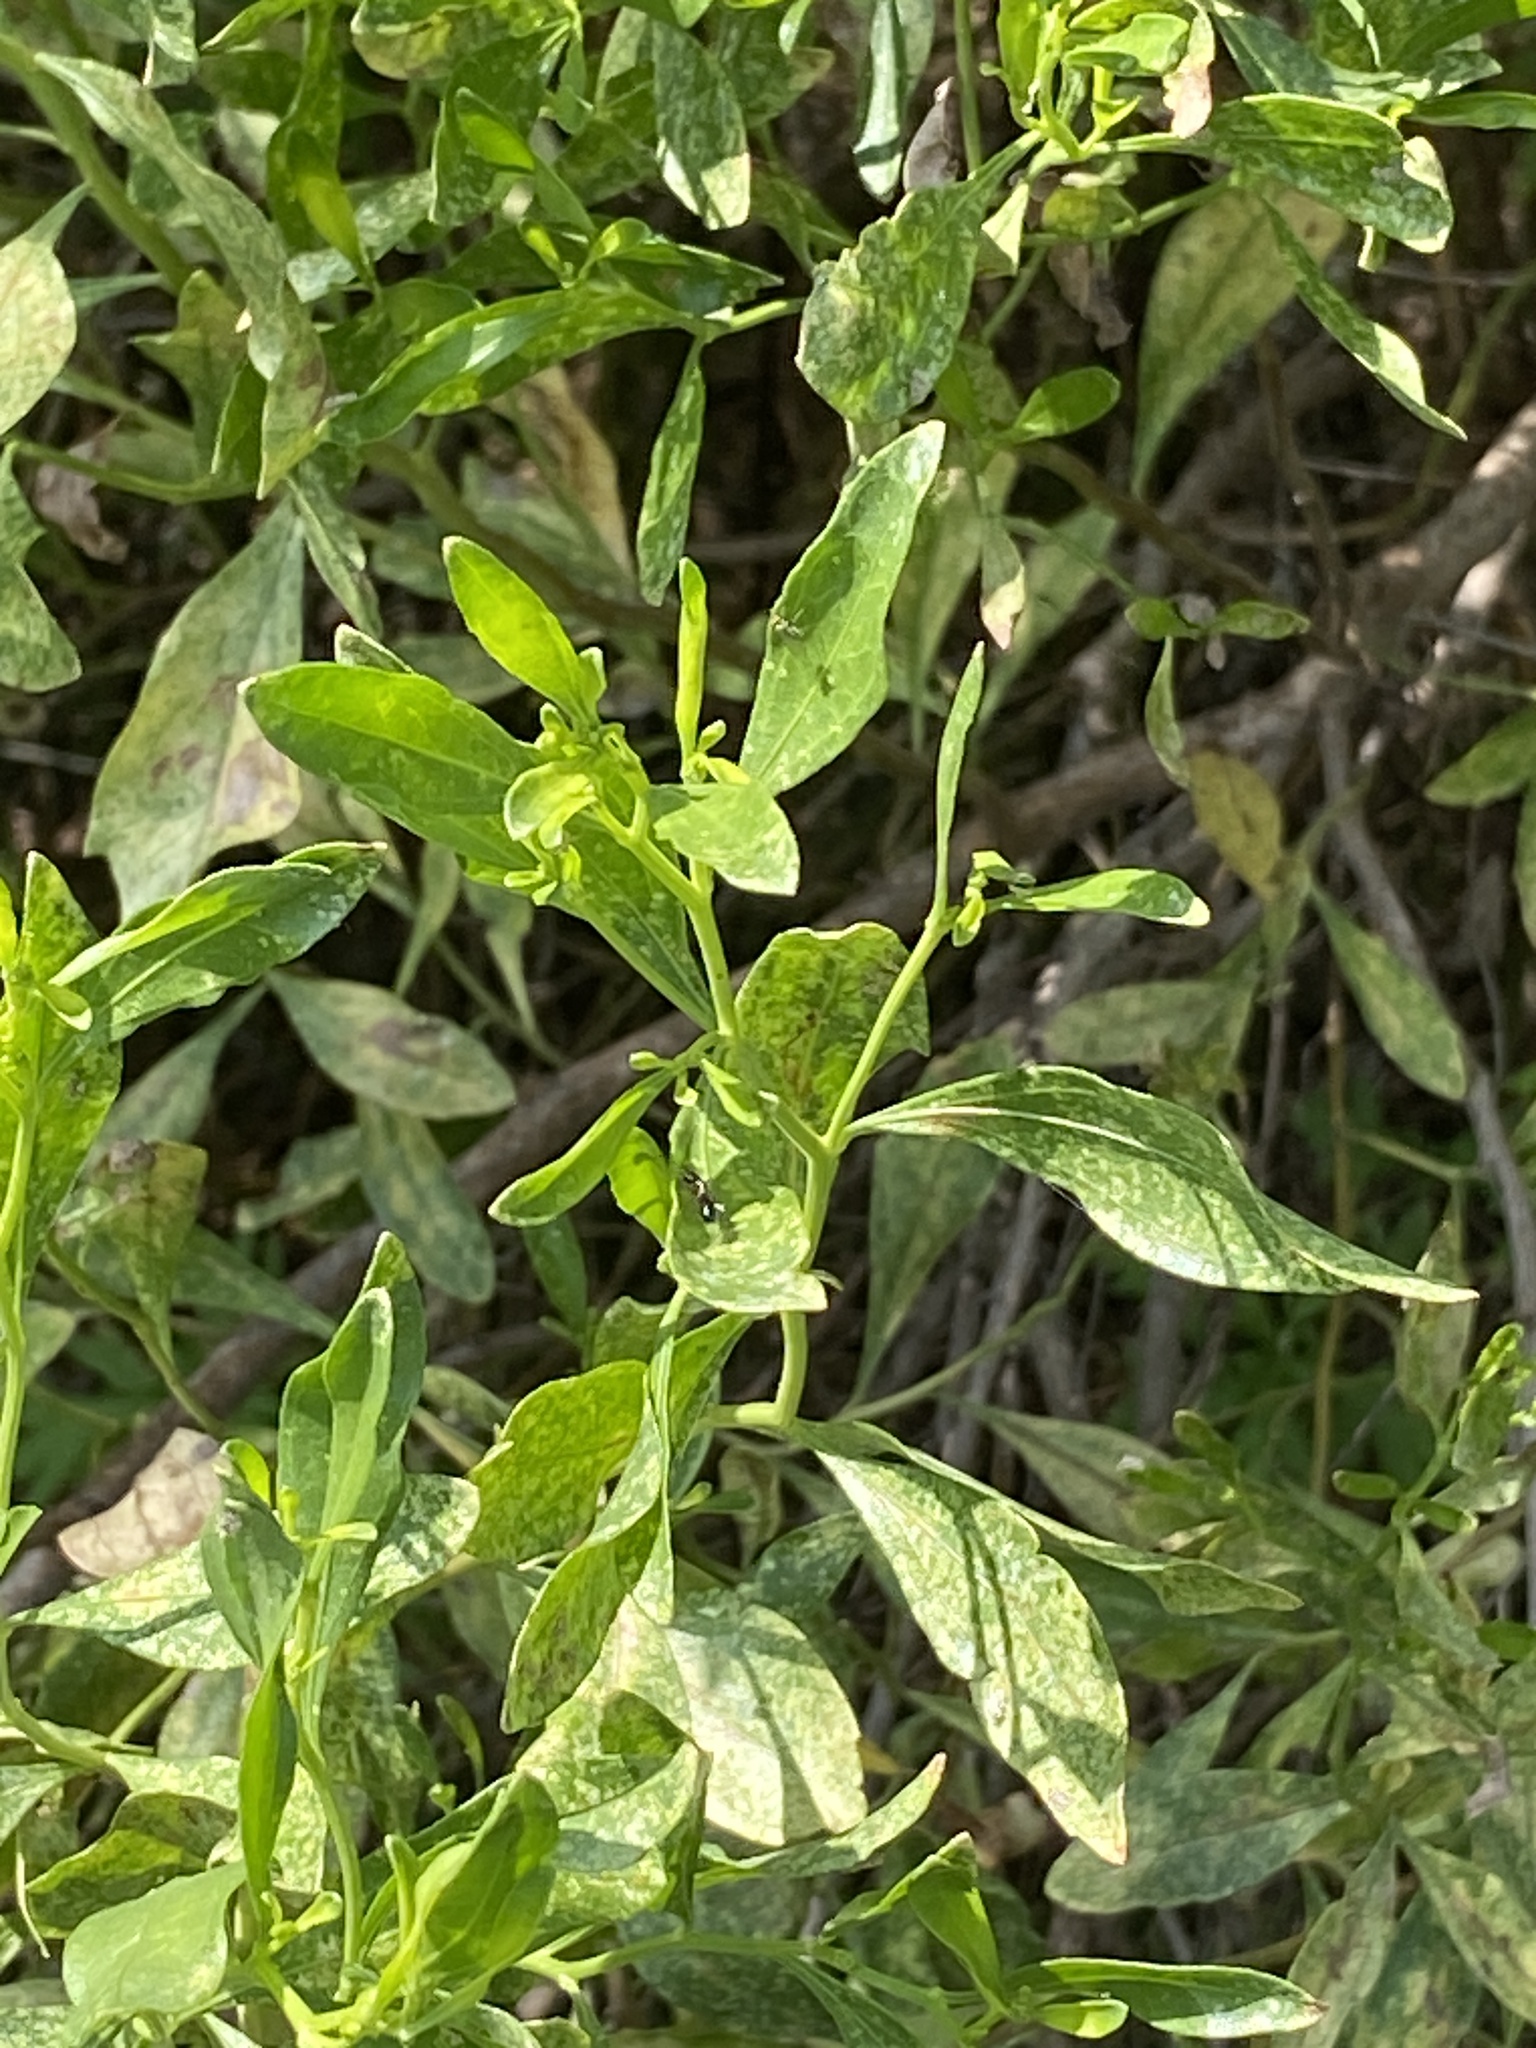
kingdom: Plantae
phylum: Tracheophyta
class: Magnoliopsida
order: Asterales
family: Asteraceae
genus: Baccharis
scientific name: Baccharis halimifolia
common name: Eastern baccharis
